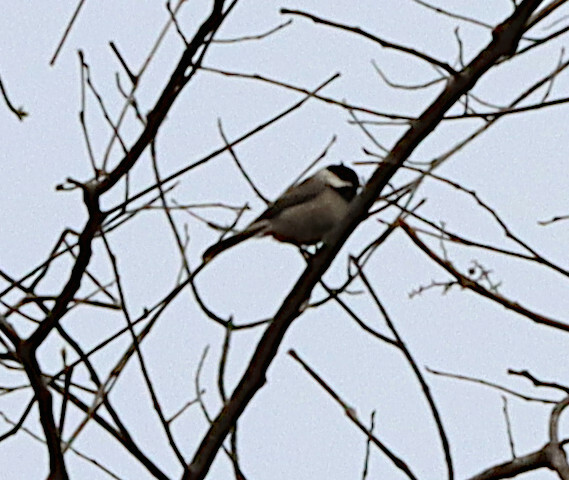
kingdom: Animalia
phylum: Chordata
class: Aves
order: Passeriformes
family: Paridae
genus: Poecile
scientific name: Poecile carolinensis
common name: Carolina chickadee
